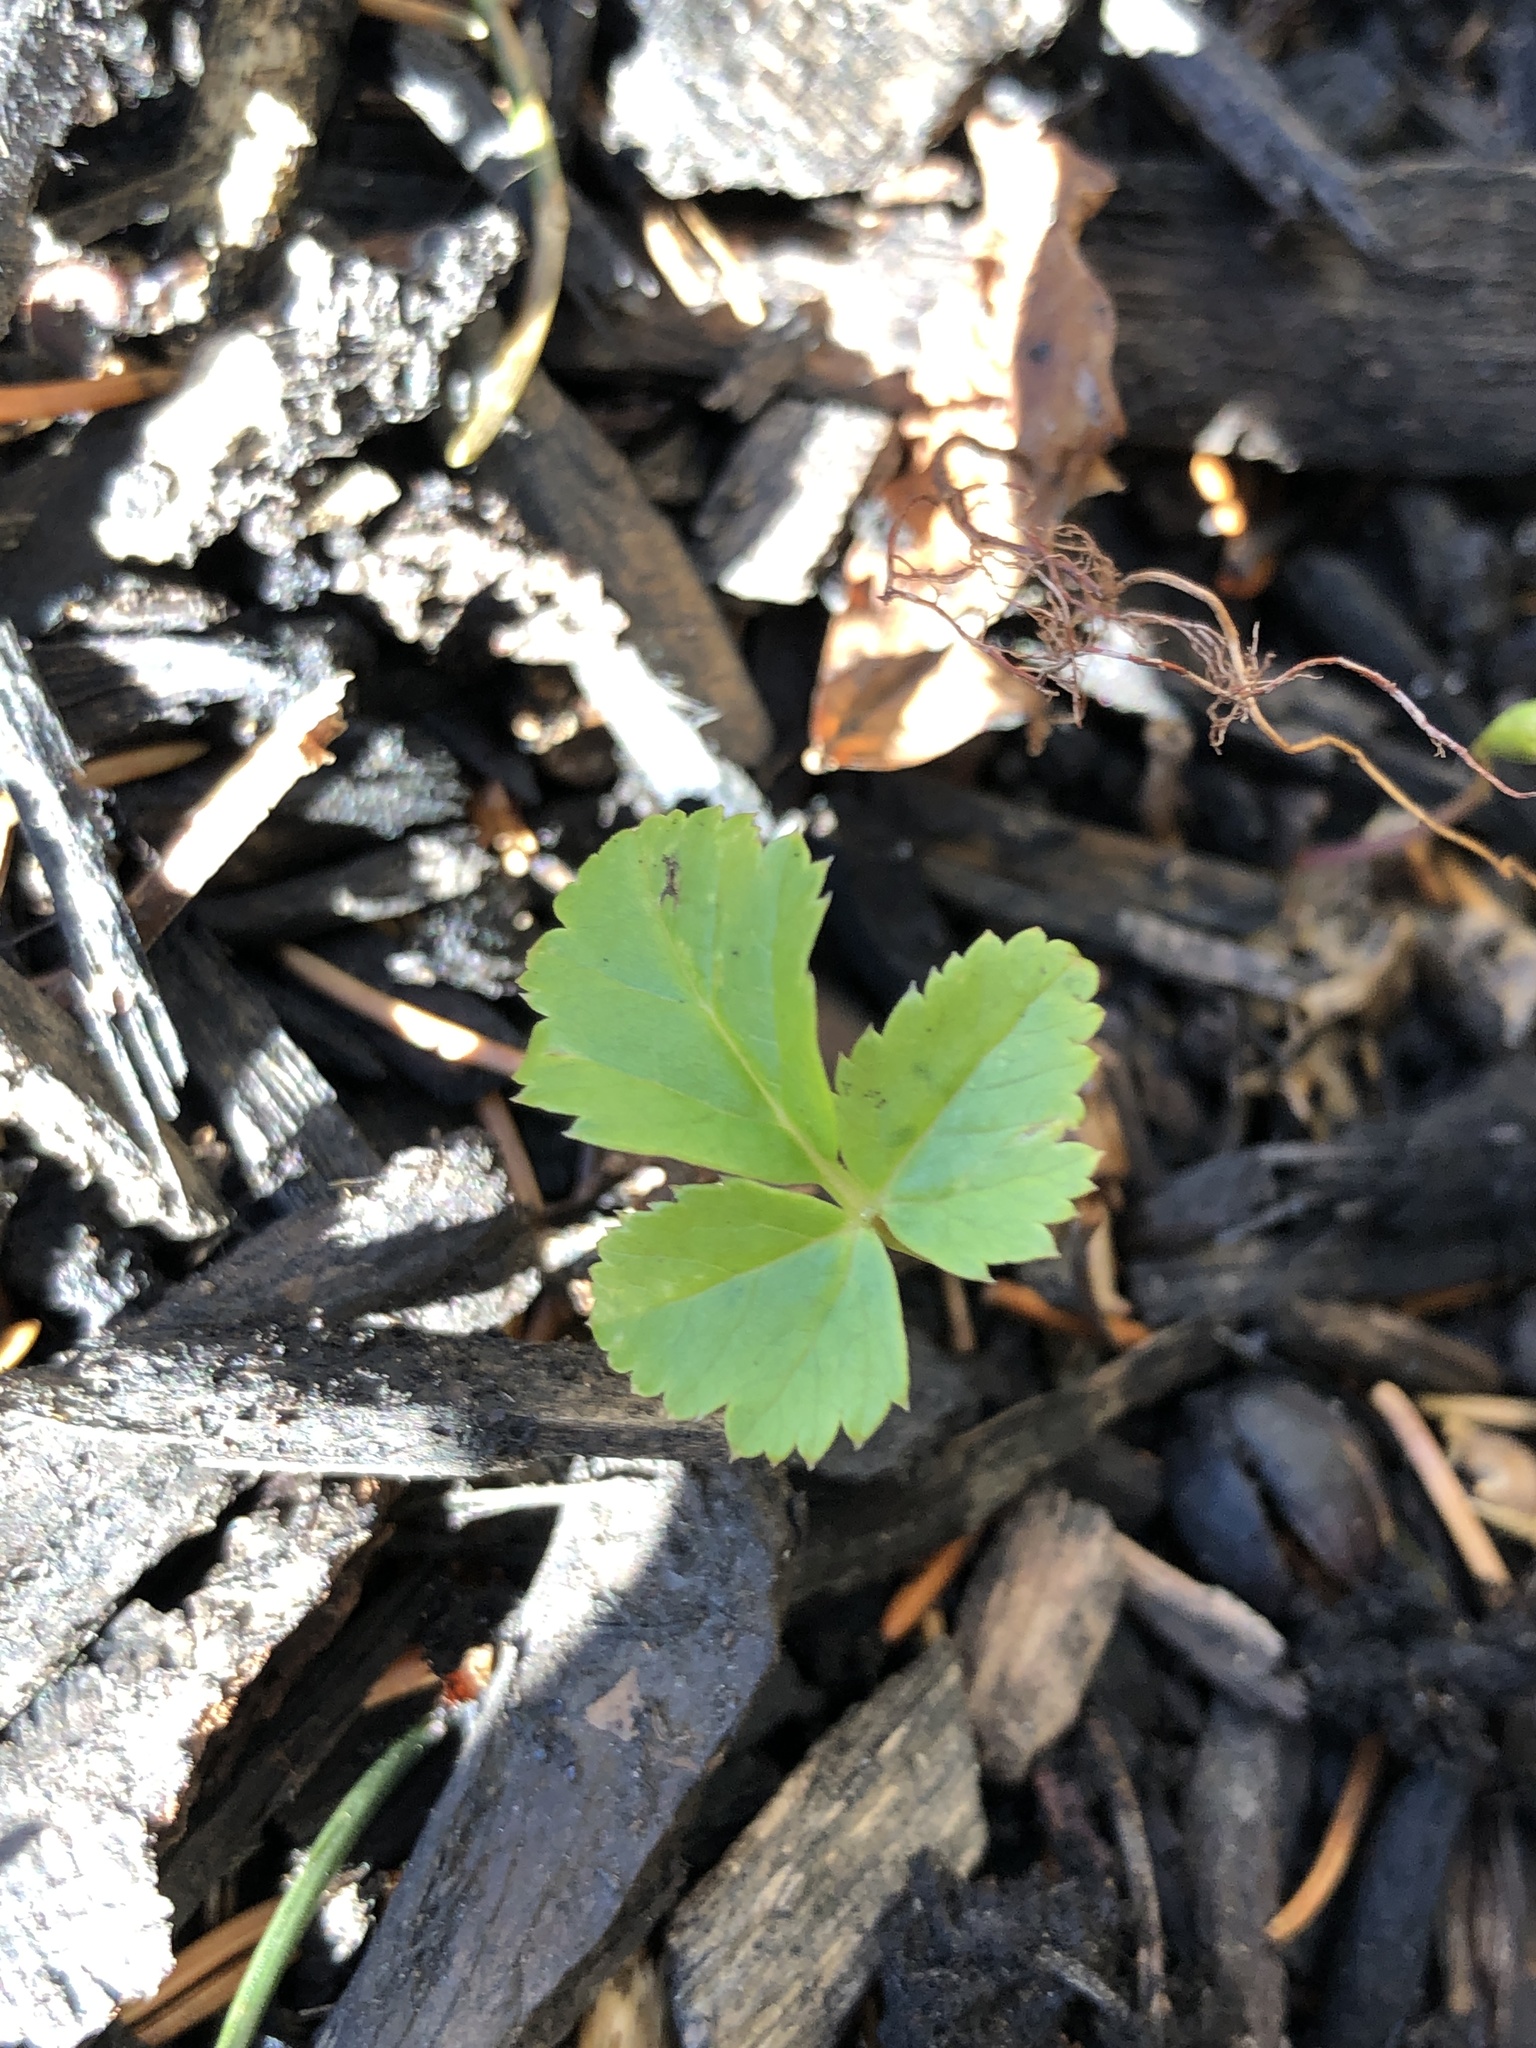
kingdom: Plantae
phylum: Tracheophyta
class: Magnoliopsida
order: Apiales
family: Apiaceae
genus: Aegopodium
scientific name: Aegopodium podagraria
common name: Ground-elder
